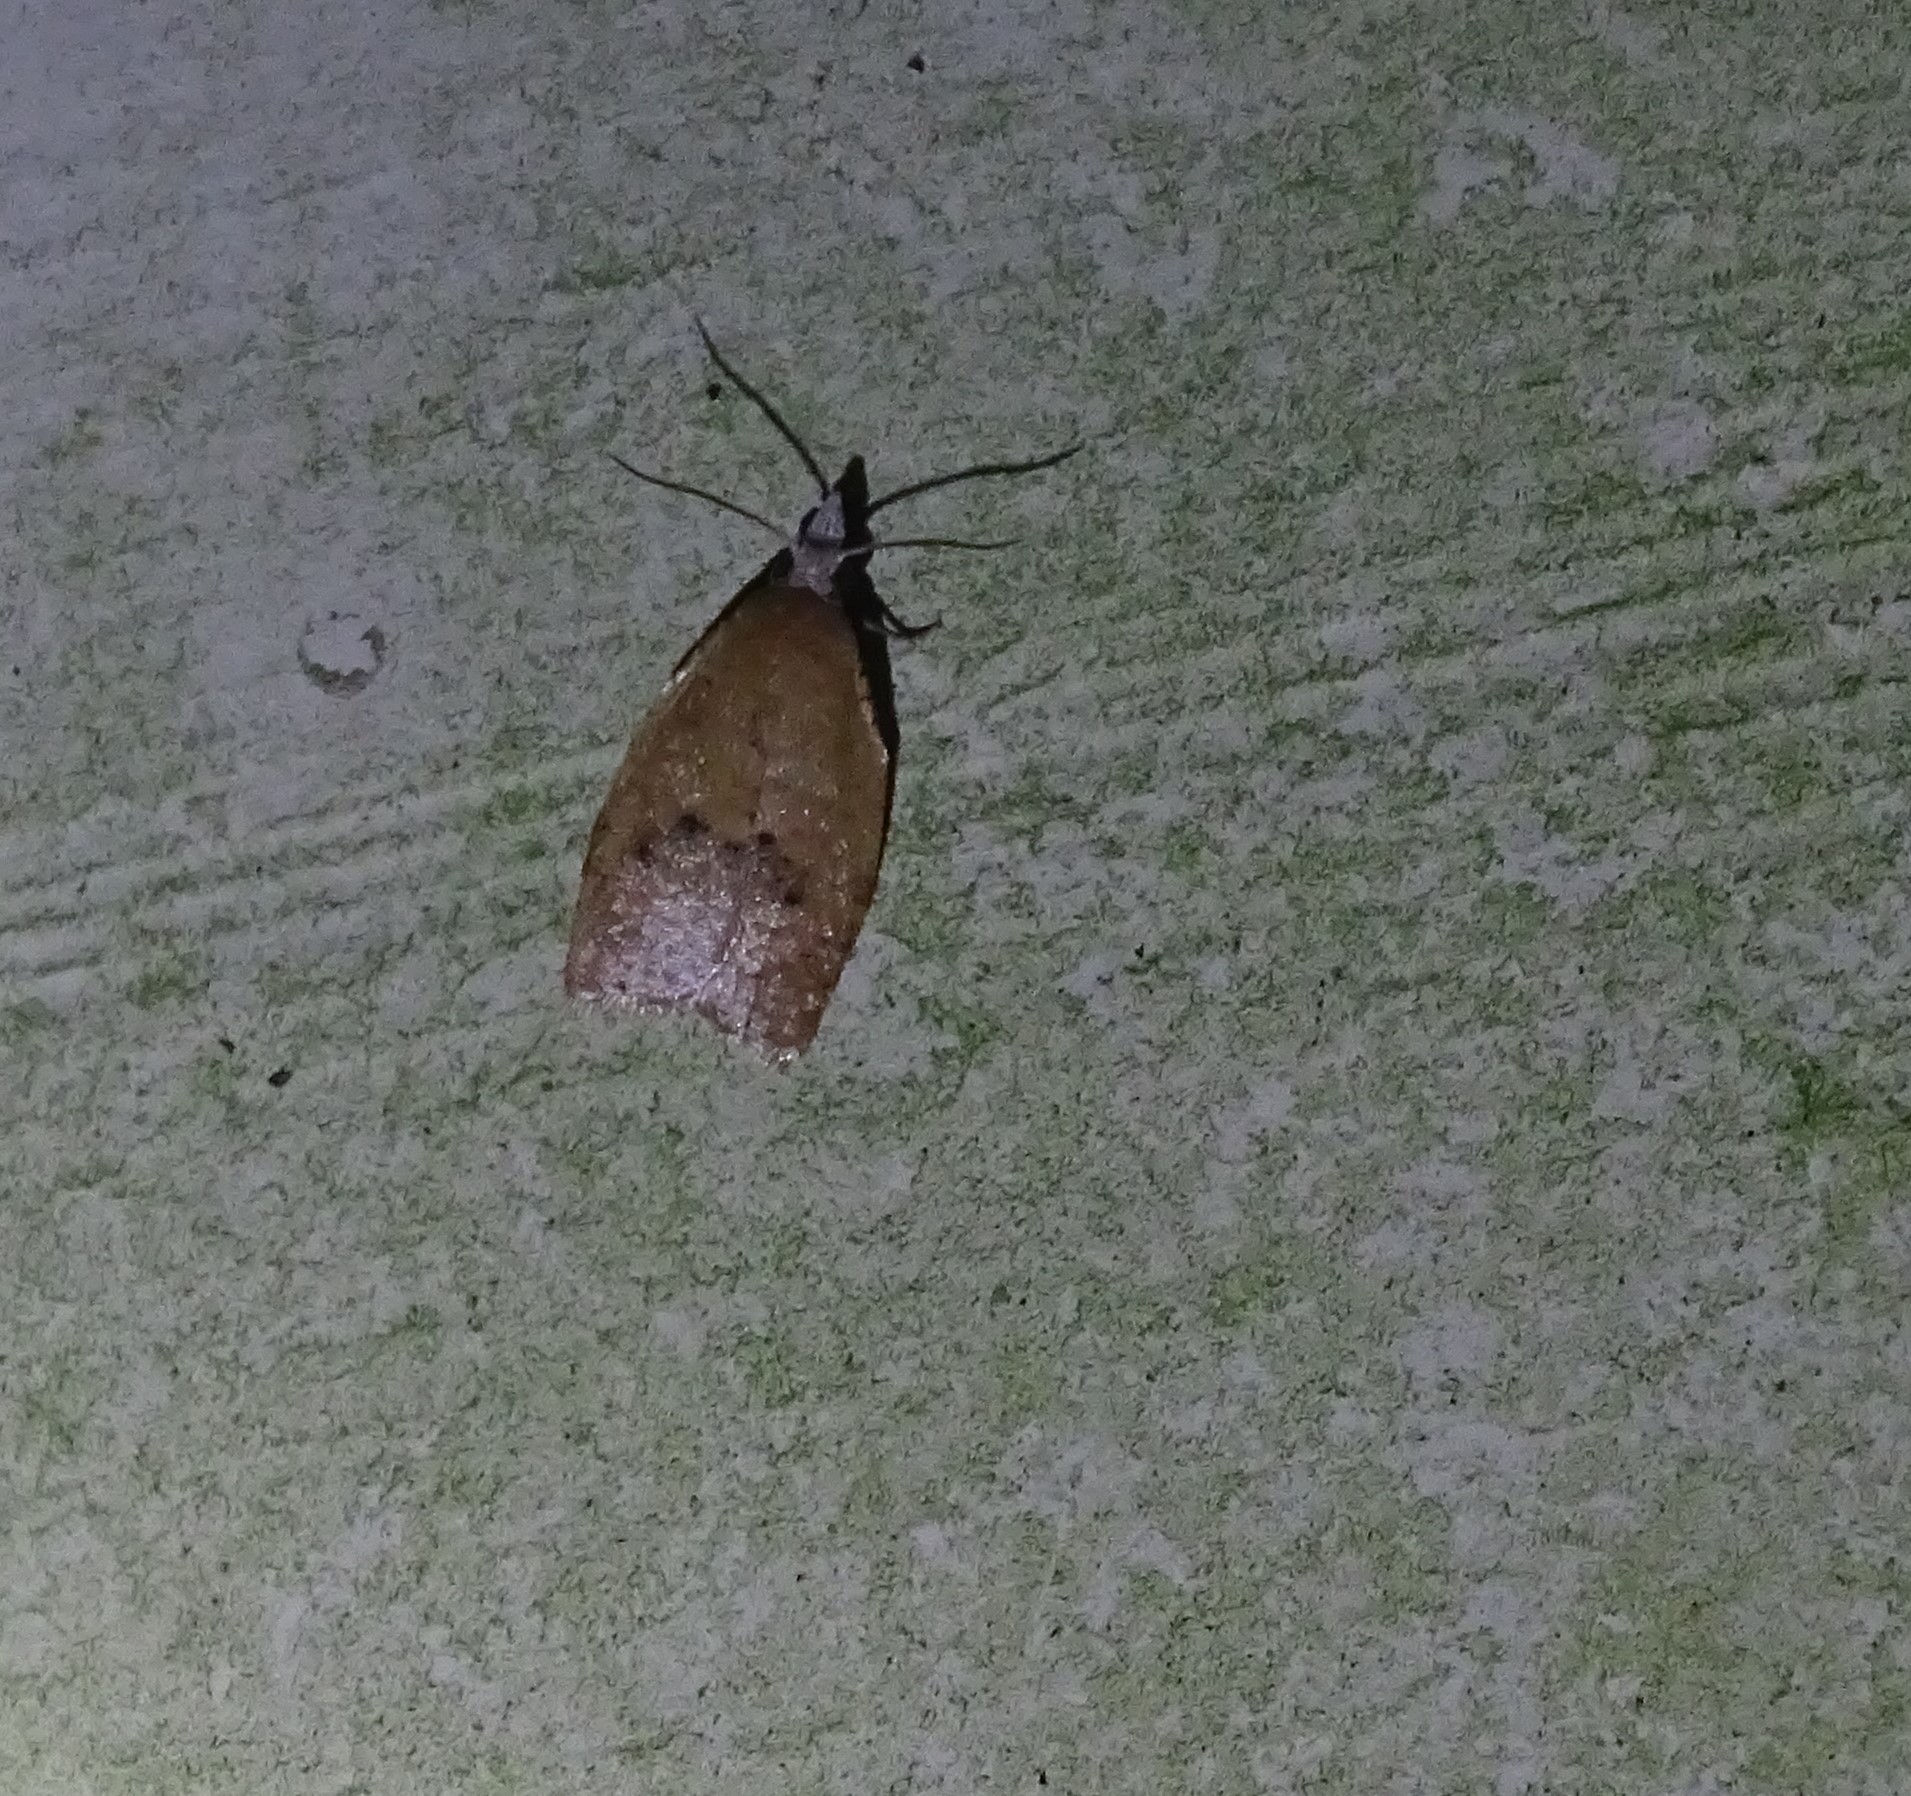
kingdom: Animalia
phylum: Arthropoda
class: Insecta
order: Lepidoptera
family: Tortricidae
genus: Sparganothoides
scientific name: Sparganothoides lentiginosana
